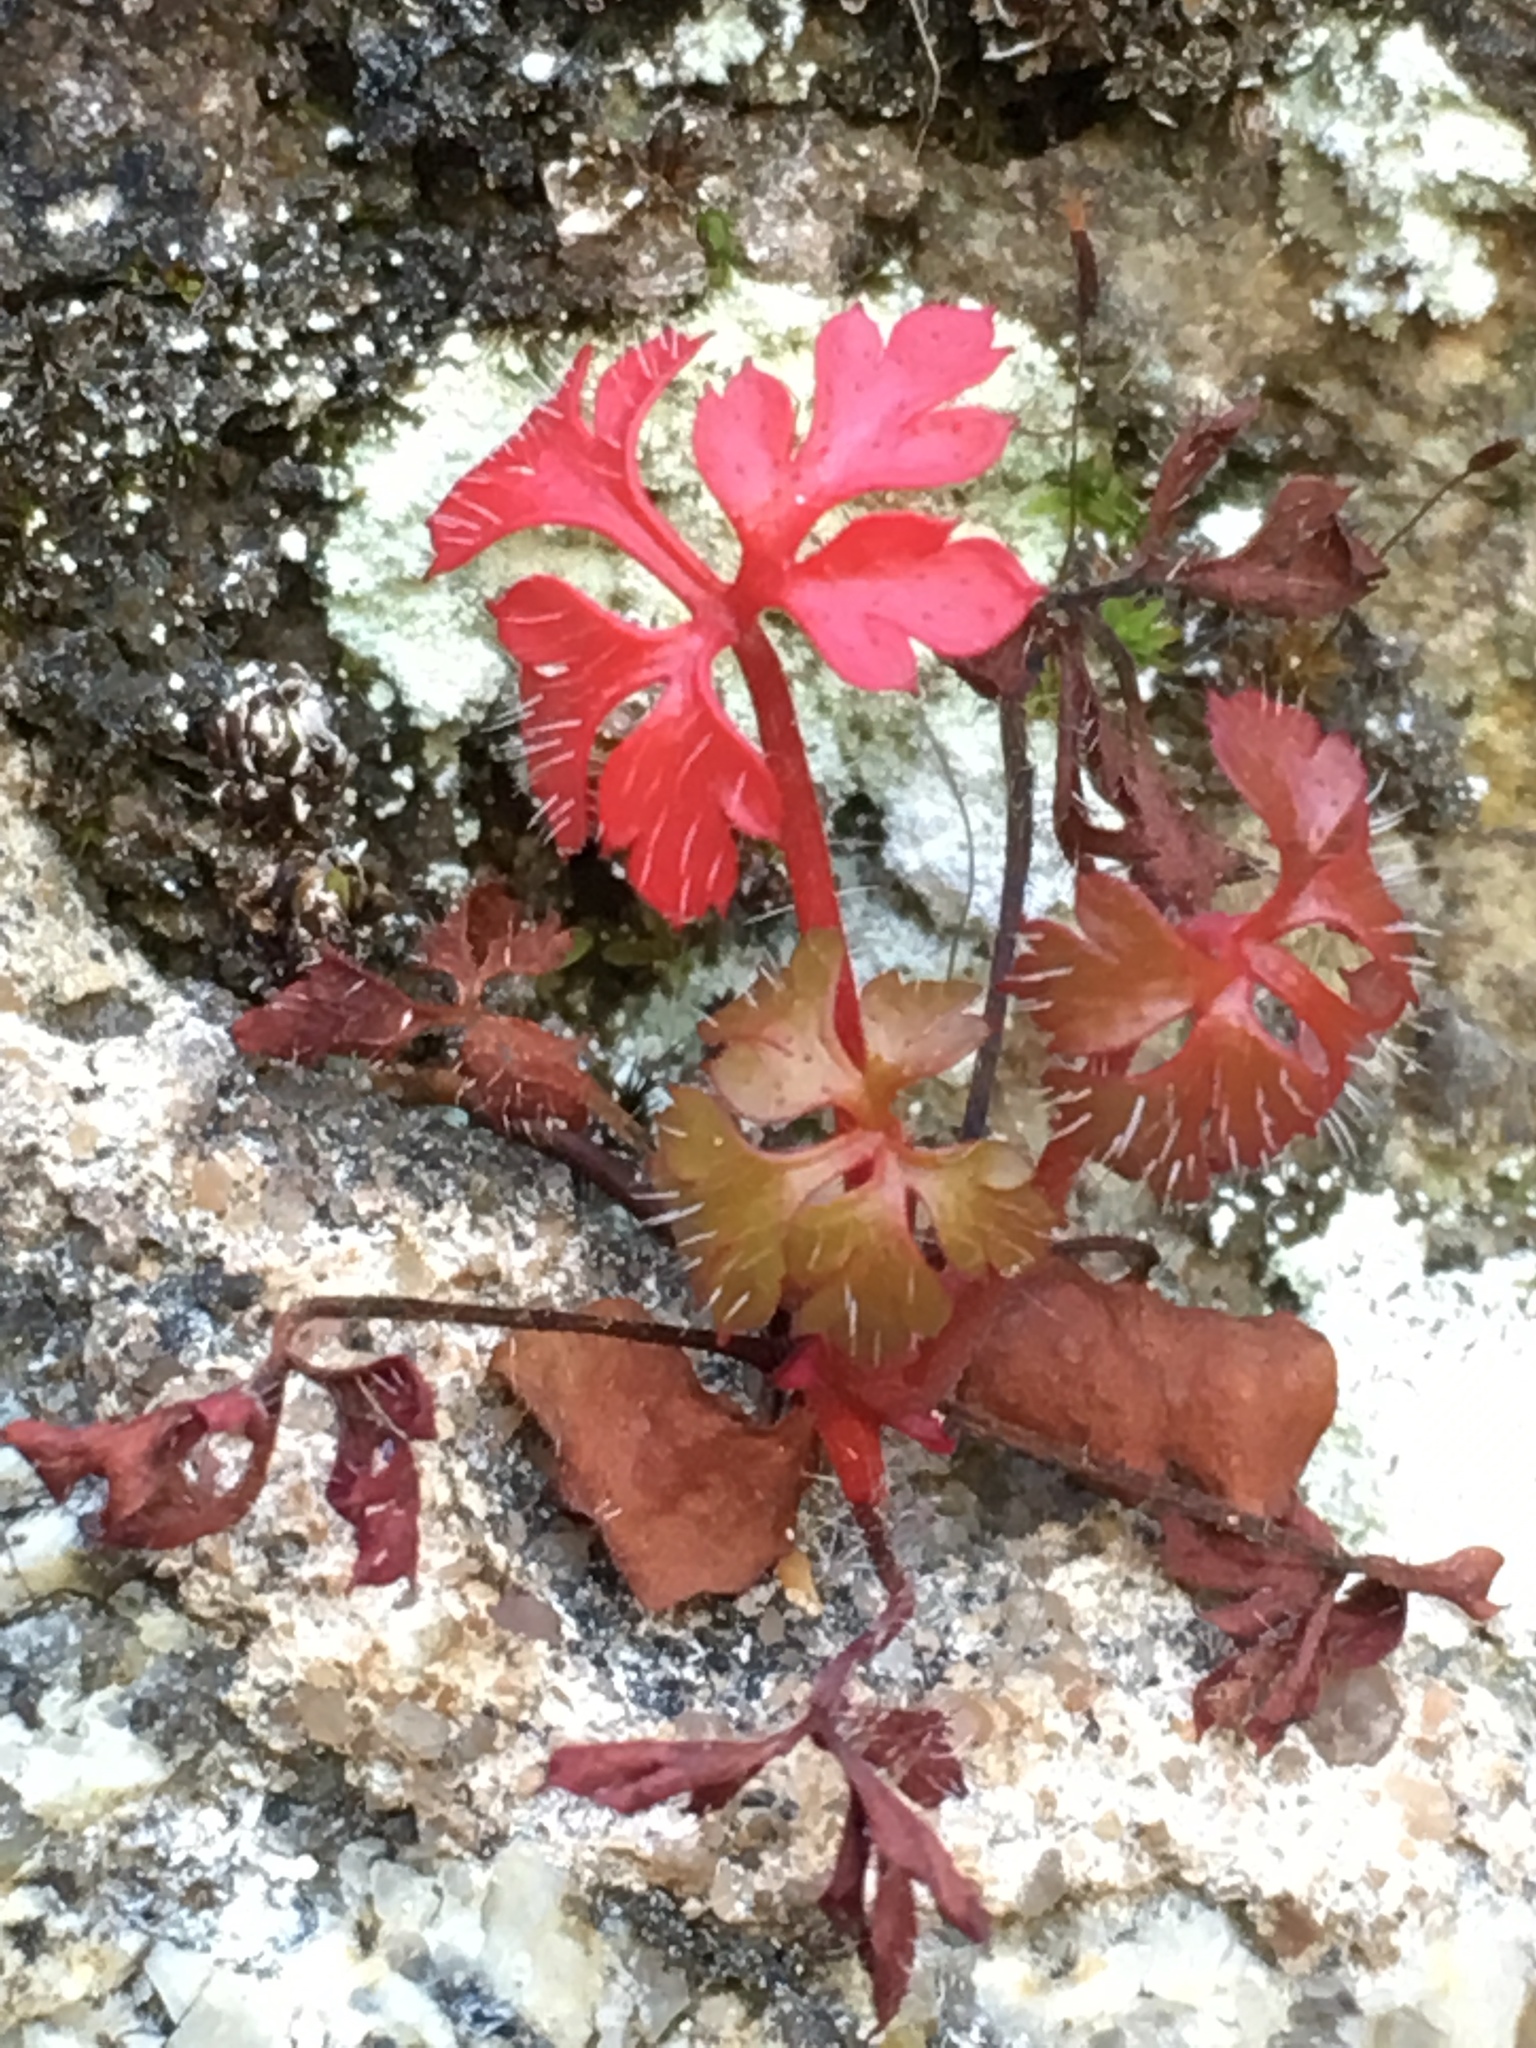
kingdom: Plantae
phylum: Tracheophyta
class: Magnoliopsida
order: Geraniales
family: Geraniaceae
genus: Geranium
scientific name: Geranium robertianum
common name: Herb-robert
